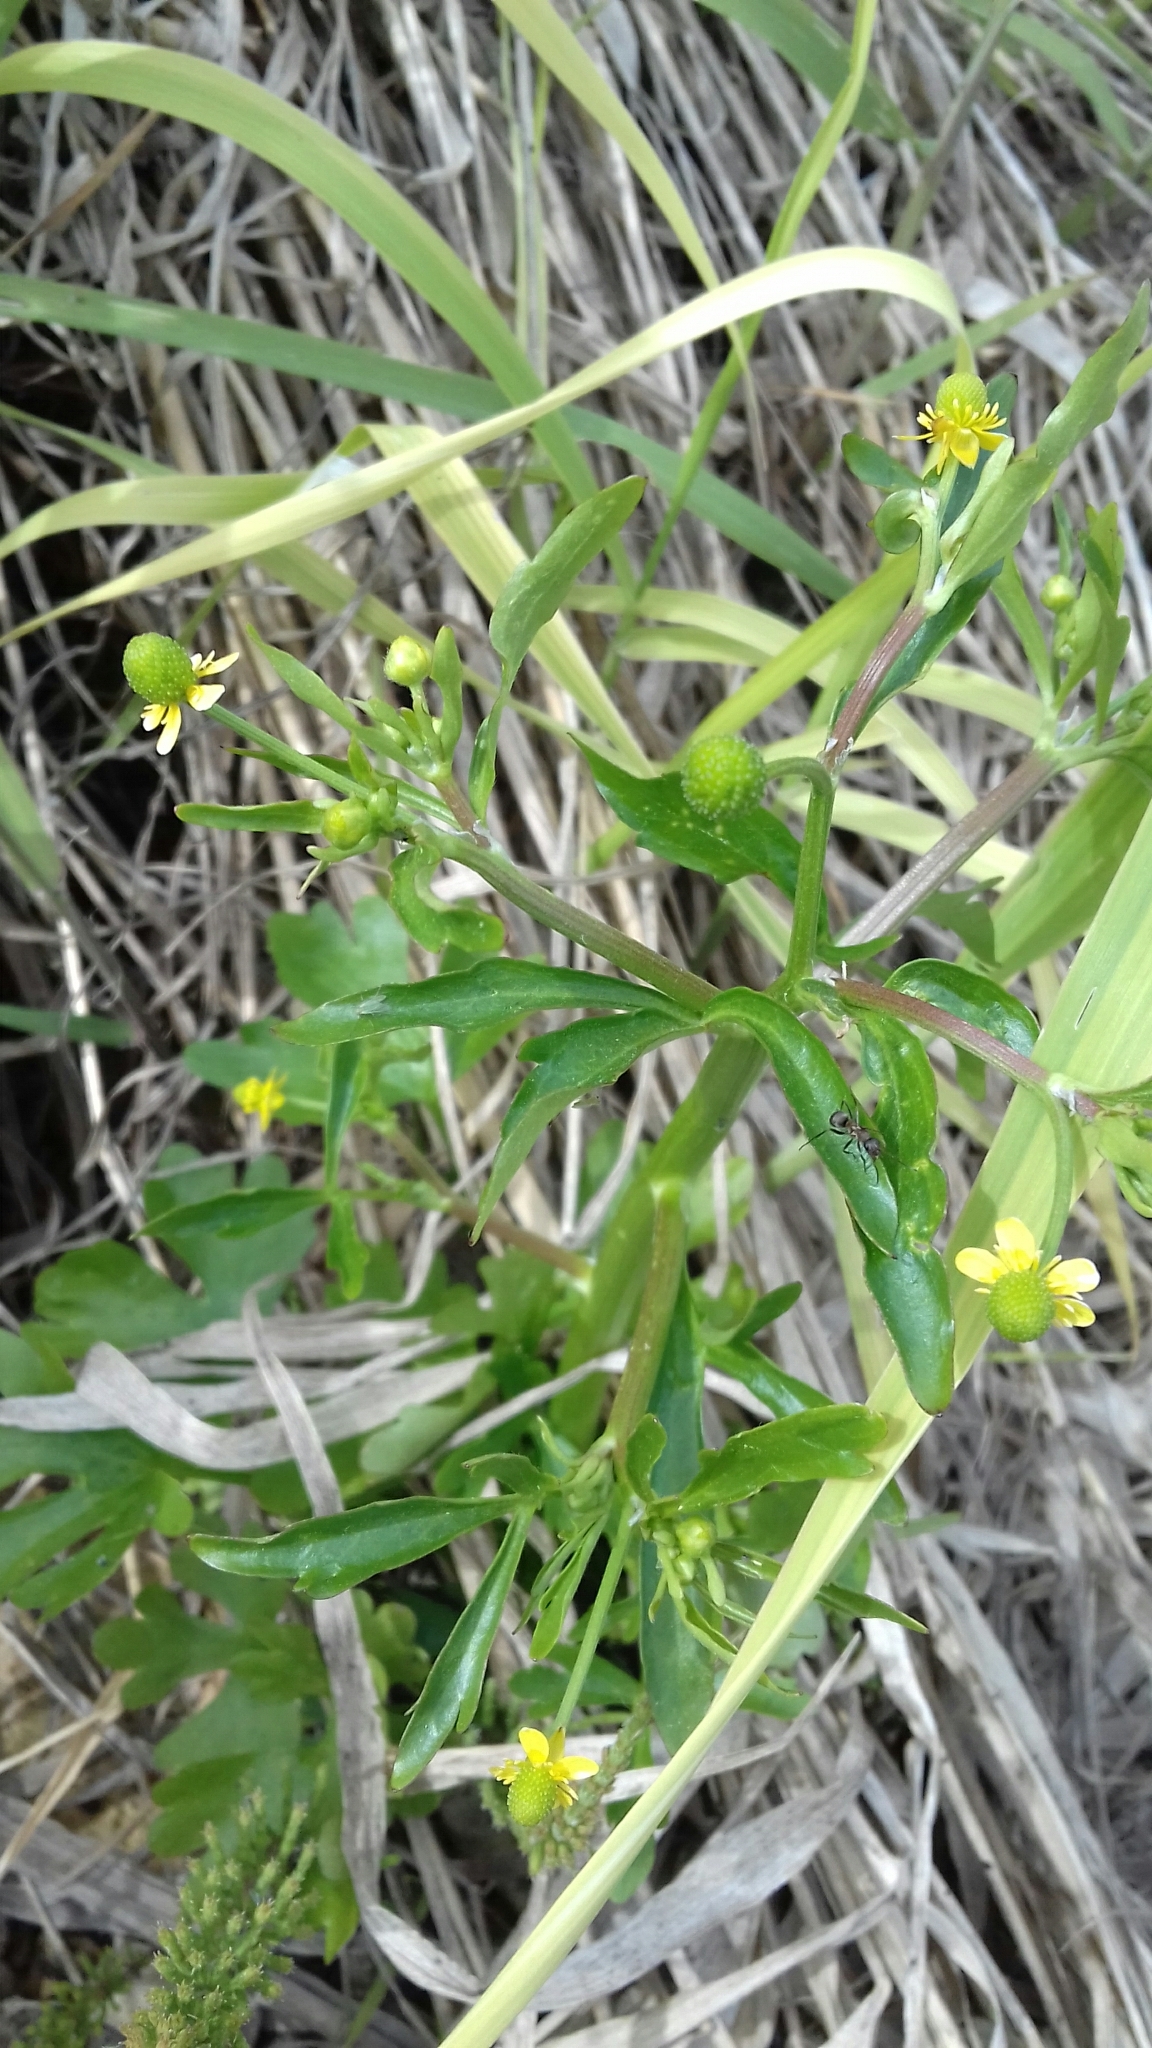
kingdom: Plantae
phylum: Tracheophyta
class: Magnoliopsida
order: Ranunculales
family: Ranunculaceae
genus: Ranunculus
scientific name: Ranunculus sceleratus
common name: Celery-leaved buttercup
